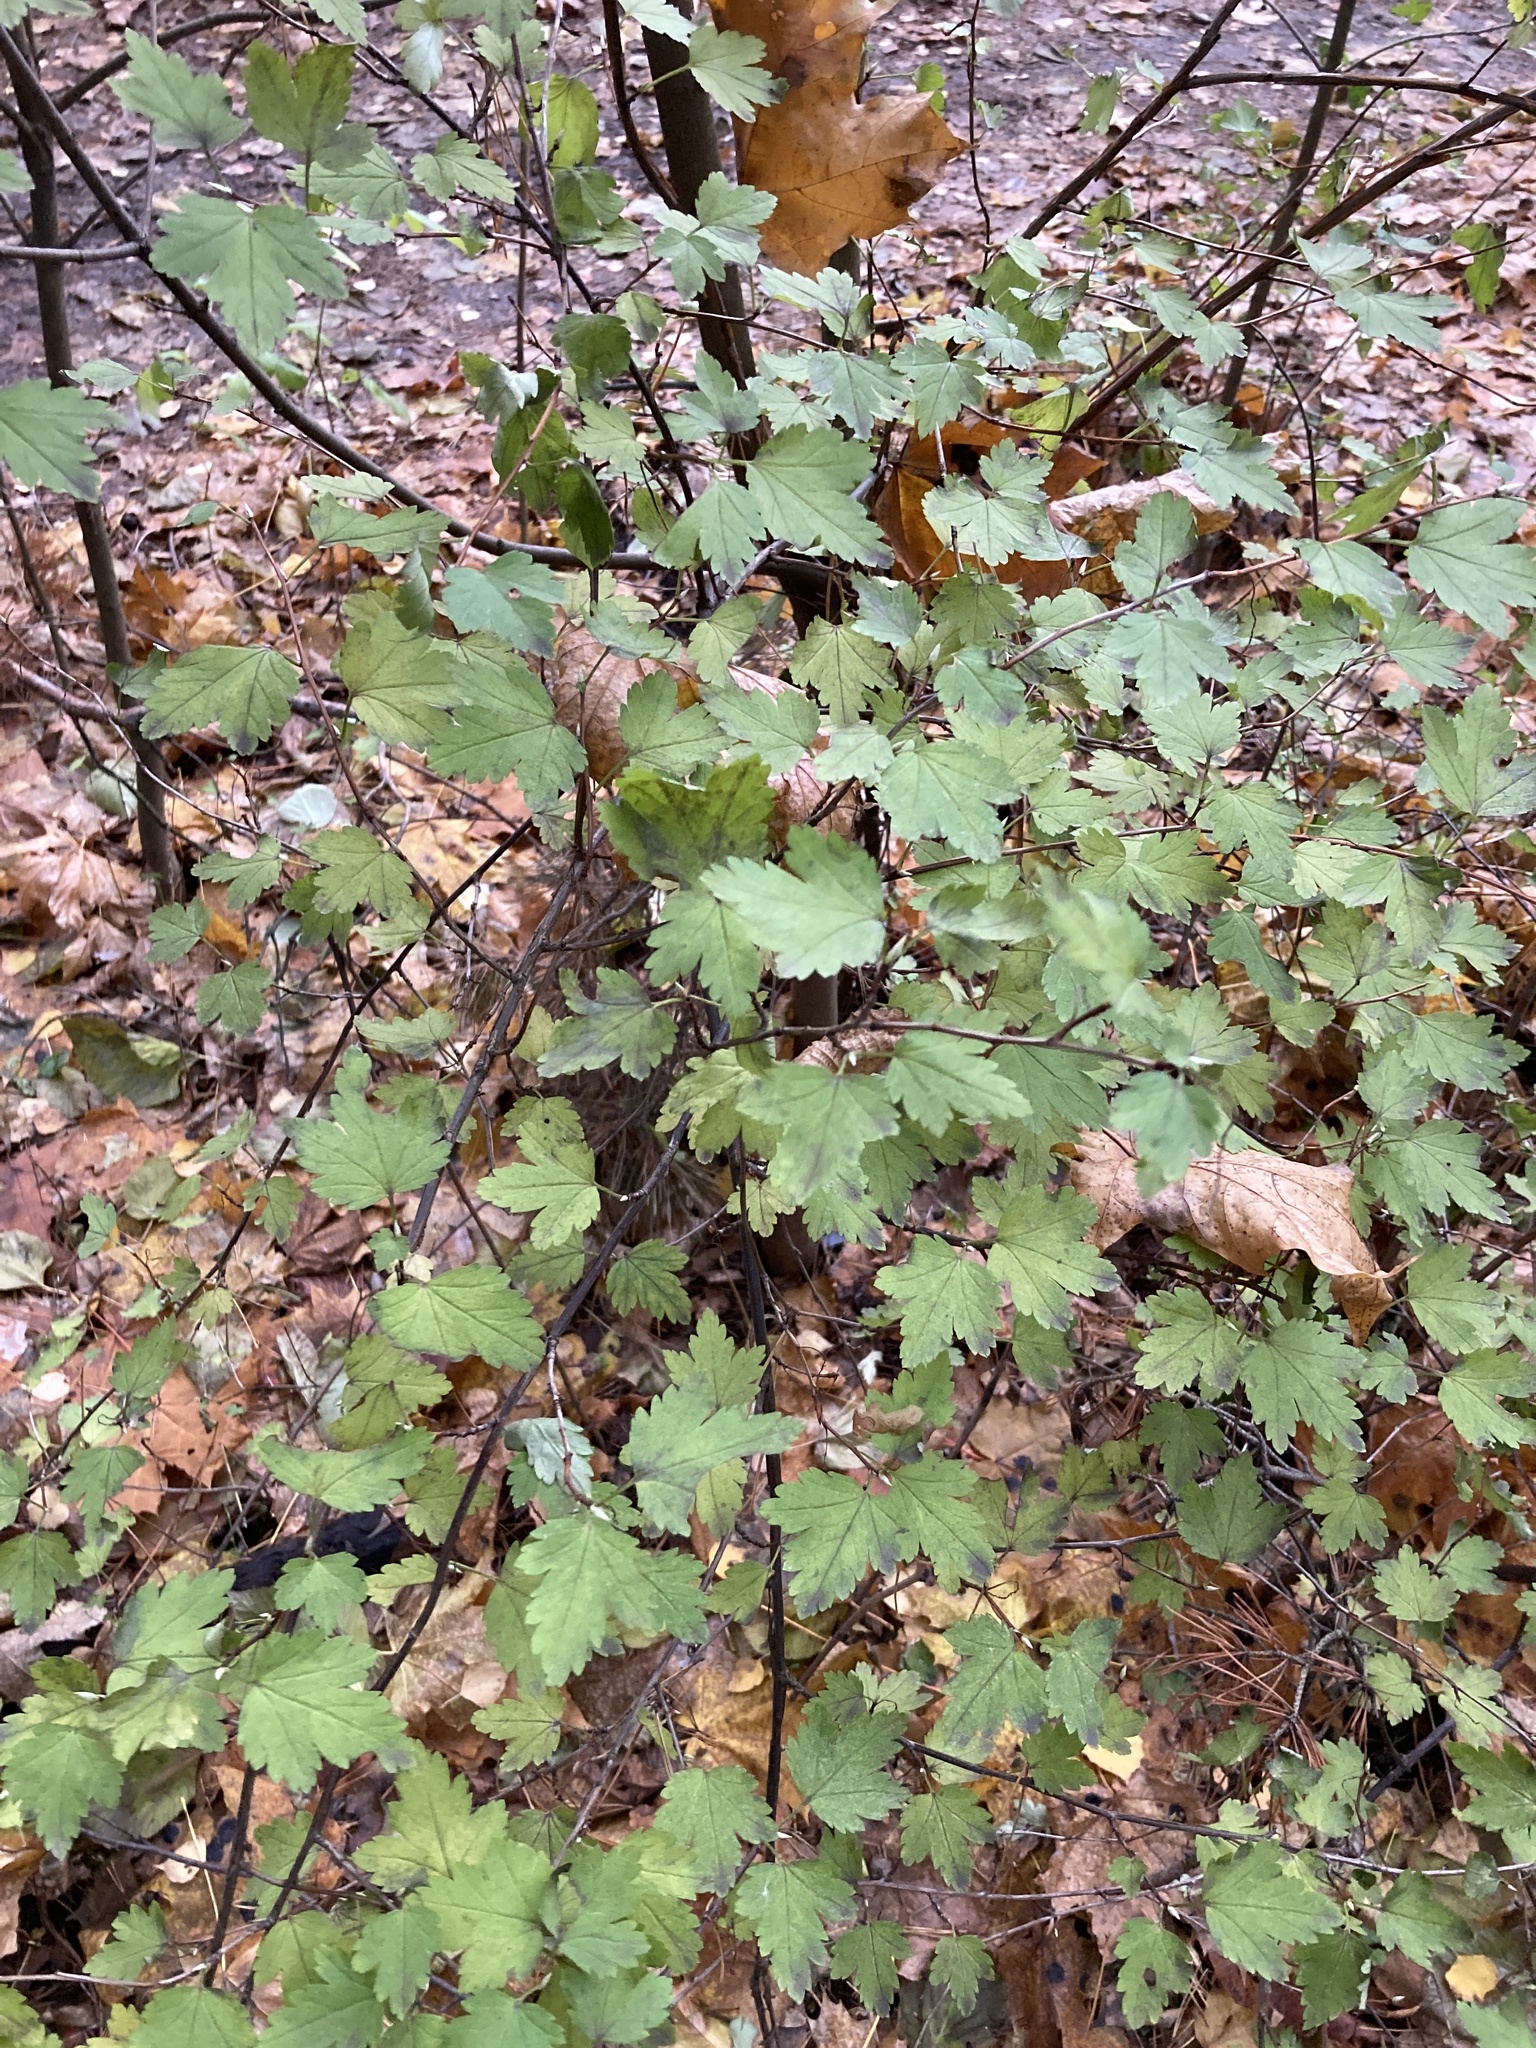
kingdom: Plantae
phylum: Tracheophyta
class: Magnoliopsida
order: Saxifragales
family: Grossulariaceae
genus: Ribes
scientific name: Ribes alpinum
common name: Alpine currant
